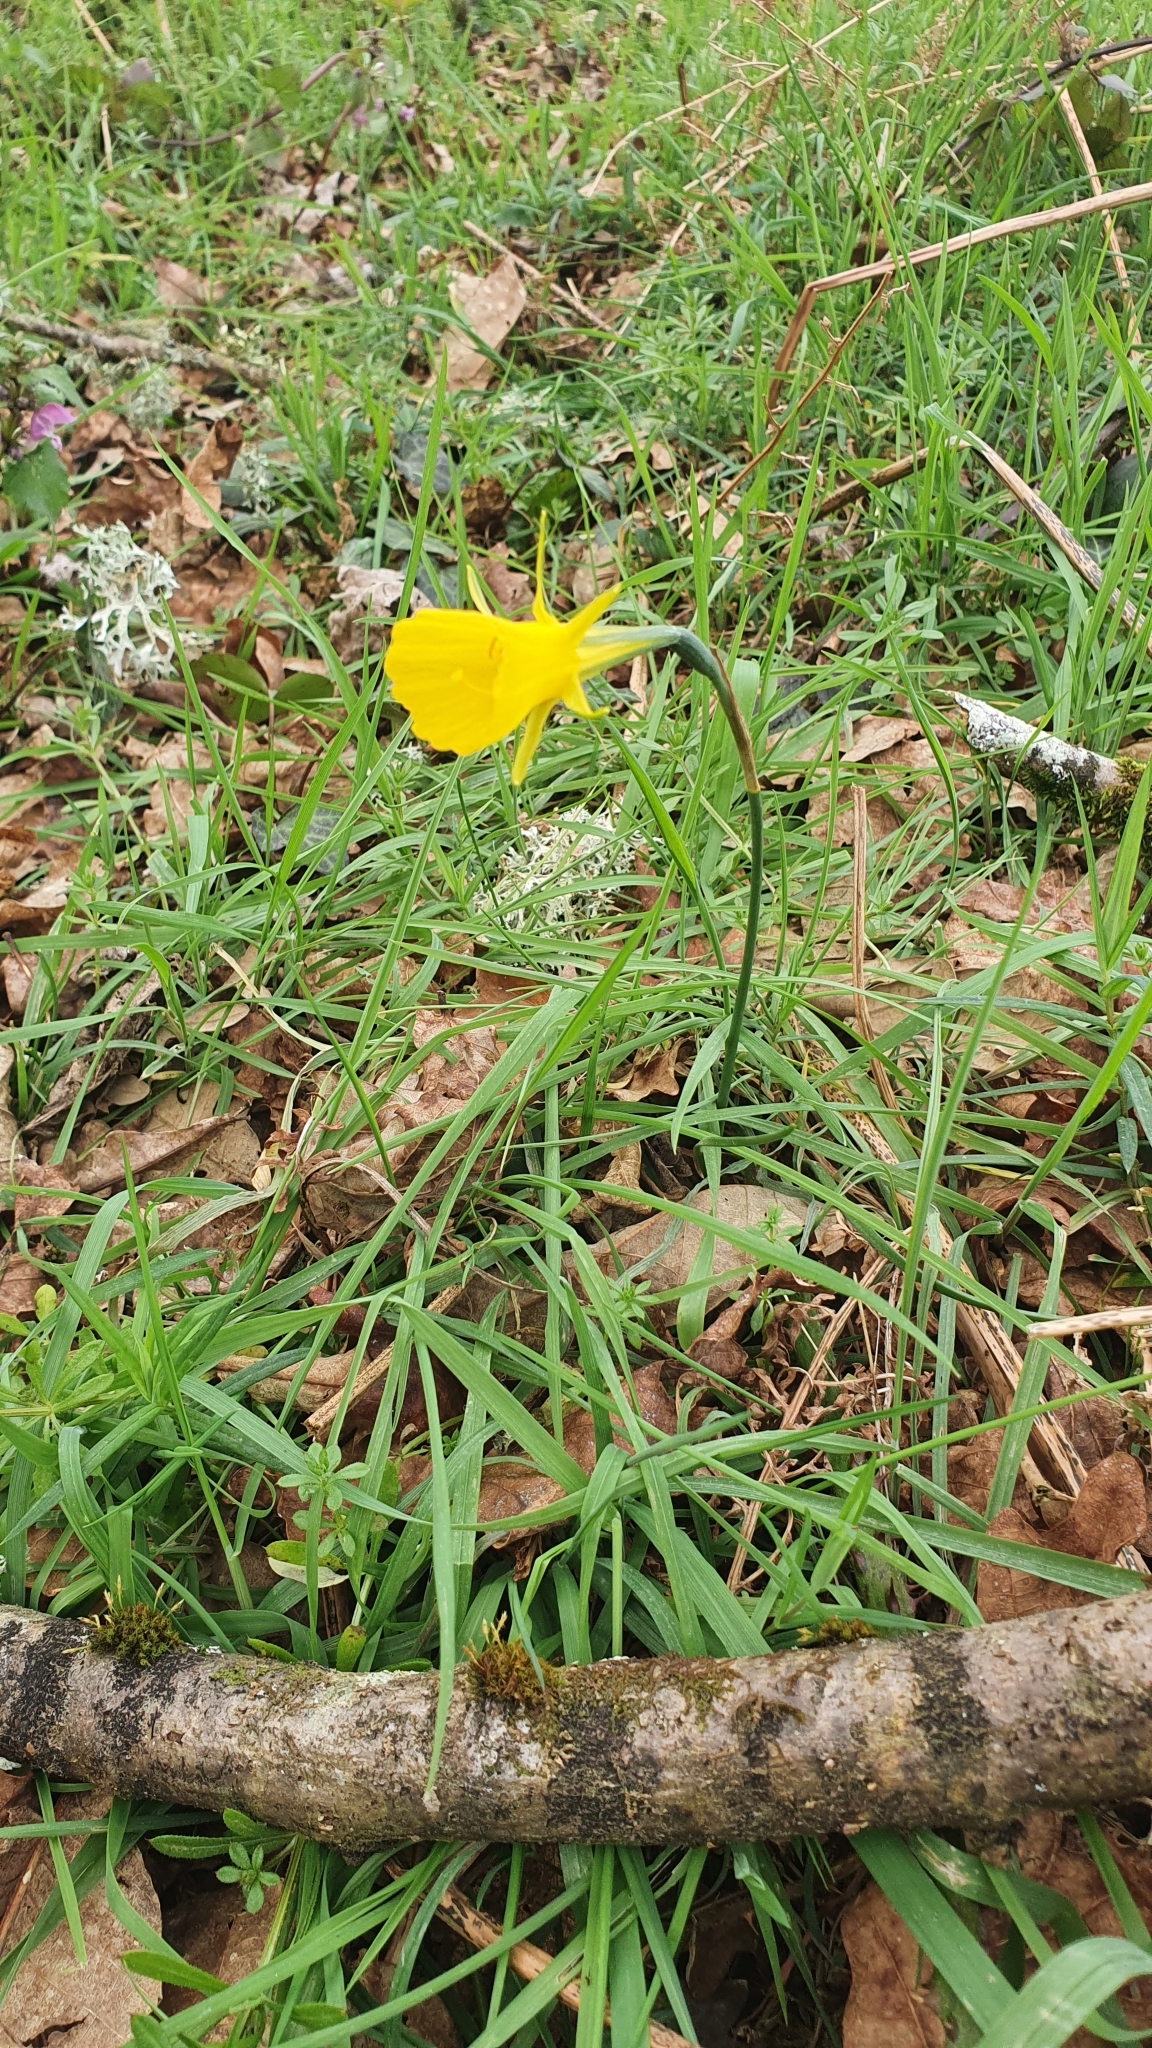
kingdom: Plantae
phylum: Tracheophyta
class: Liliopsida
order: Asparagales
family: Amaryllidaceae
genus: Narcissus
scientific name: Narcissus bulbocodium
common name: Hoop-petticoat daffodil
